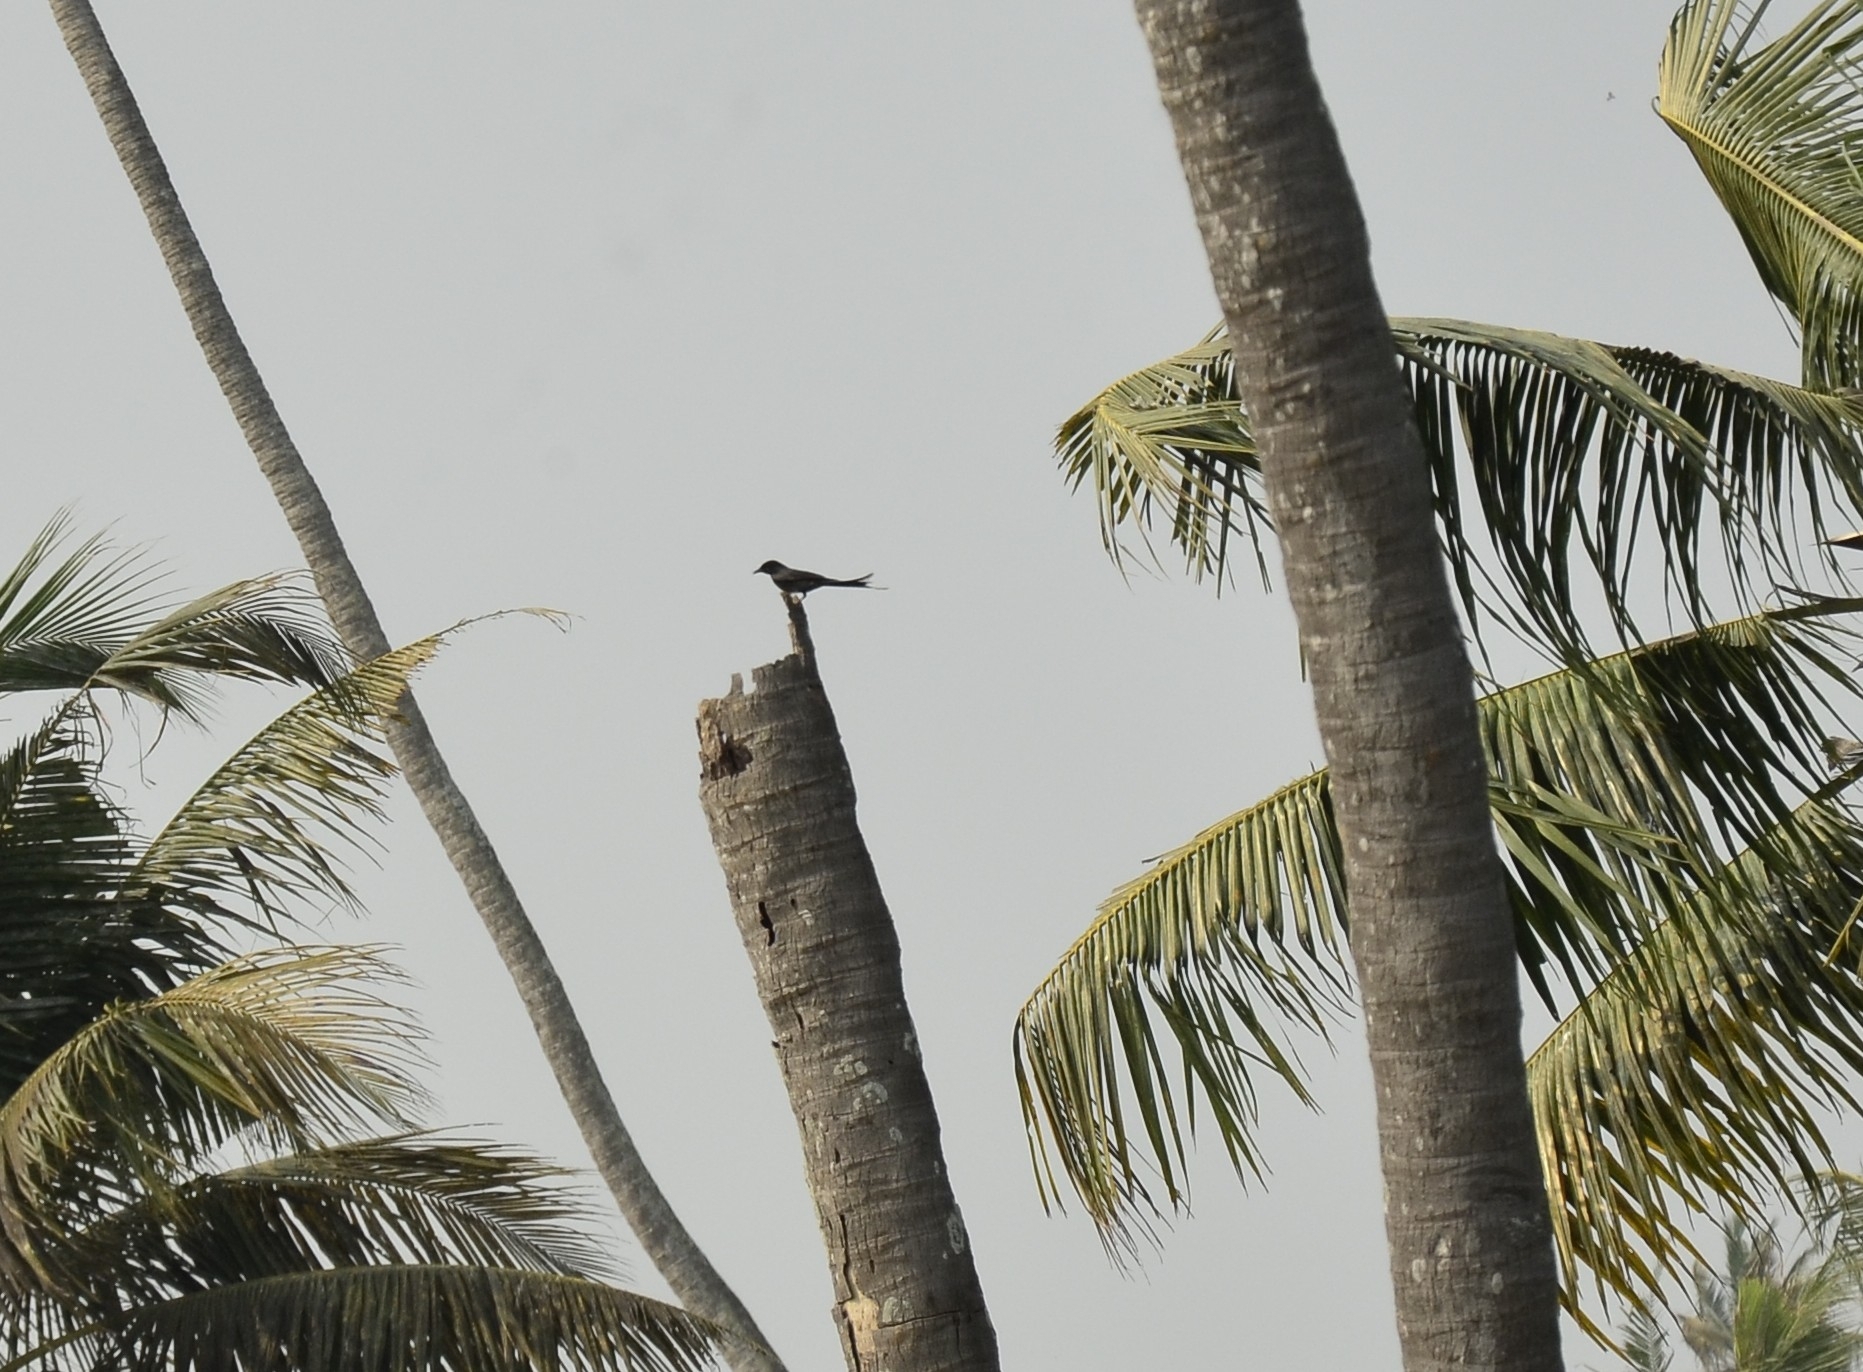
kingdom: Animalia
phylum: Chordata
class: Aves
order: Passeriformes
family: Dicruridae
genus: Dicrurus
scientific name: Dicrurus macrocercus
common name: Black drongo
